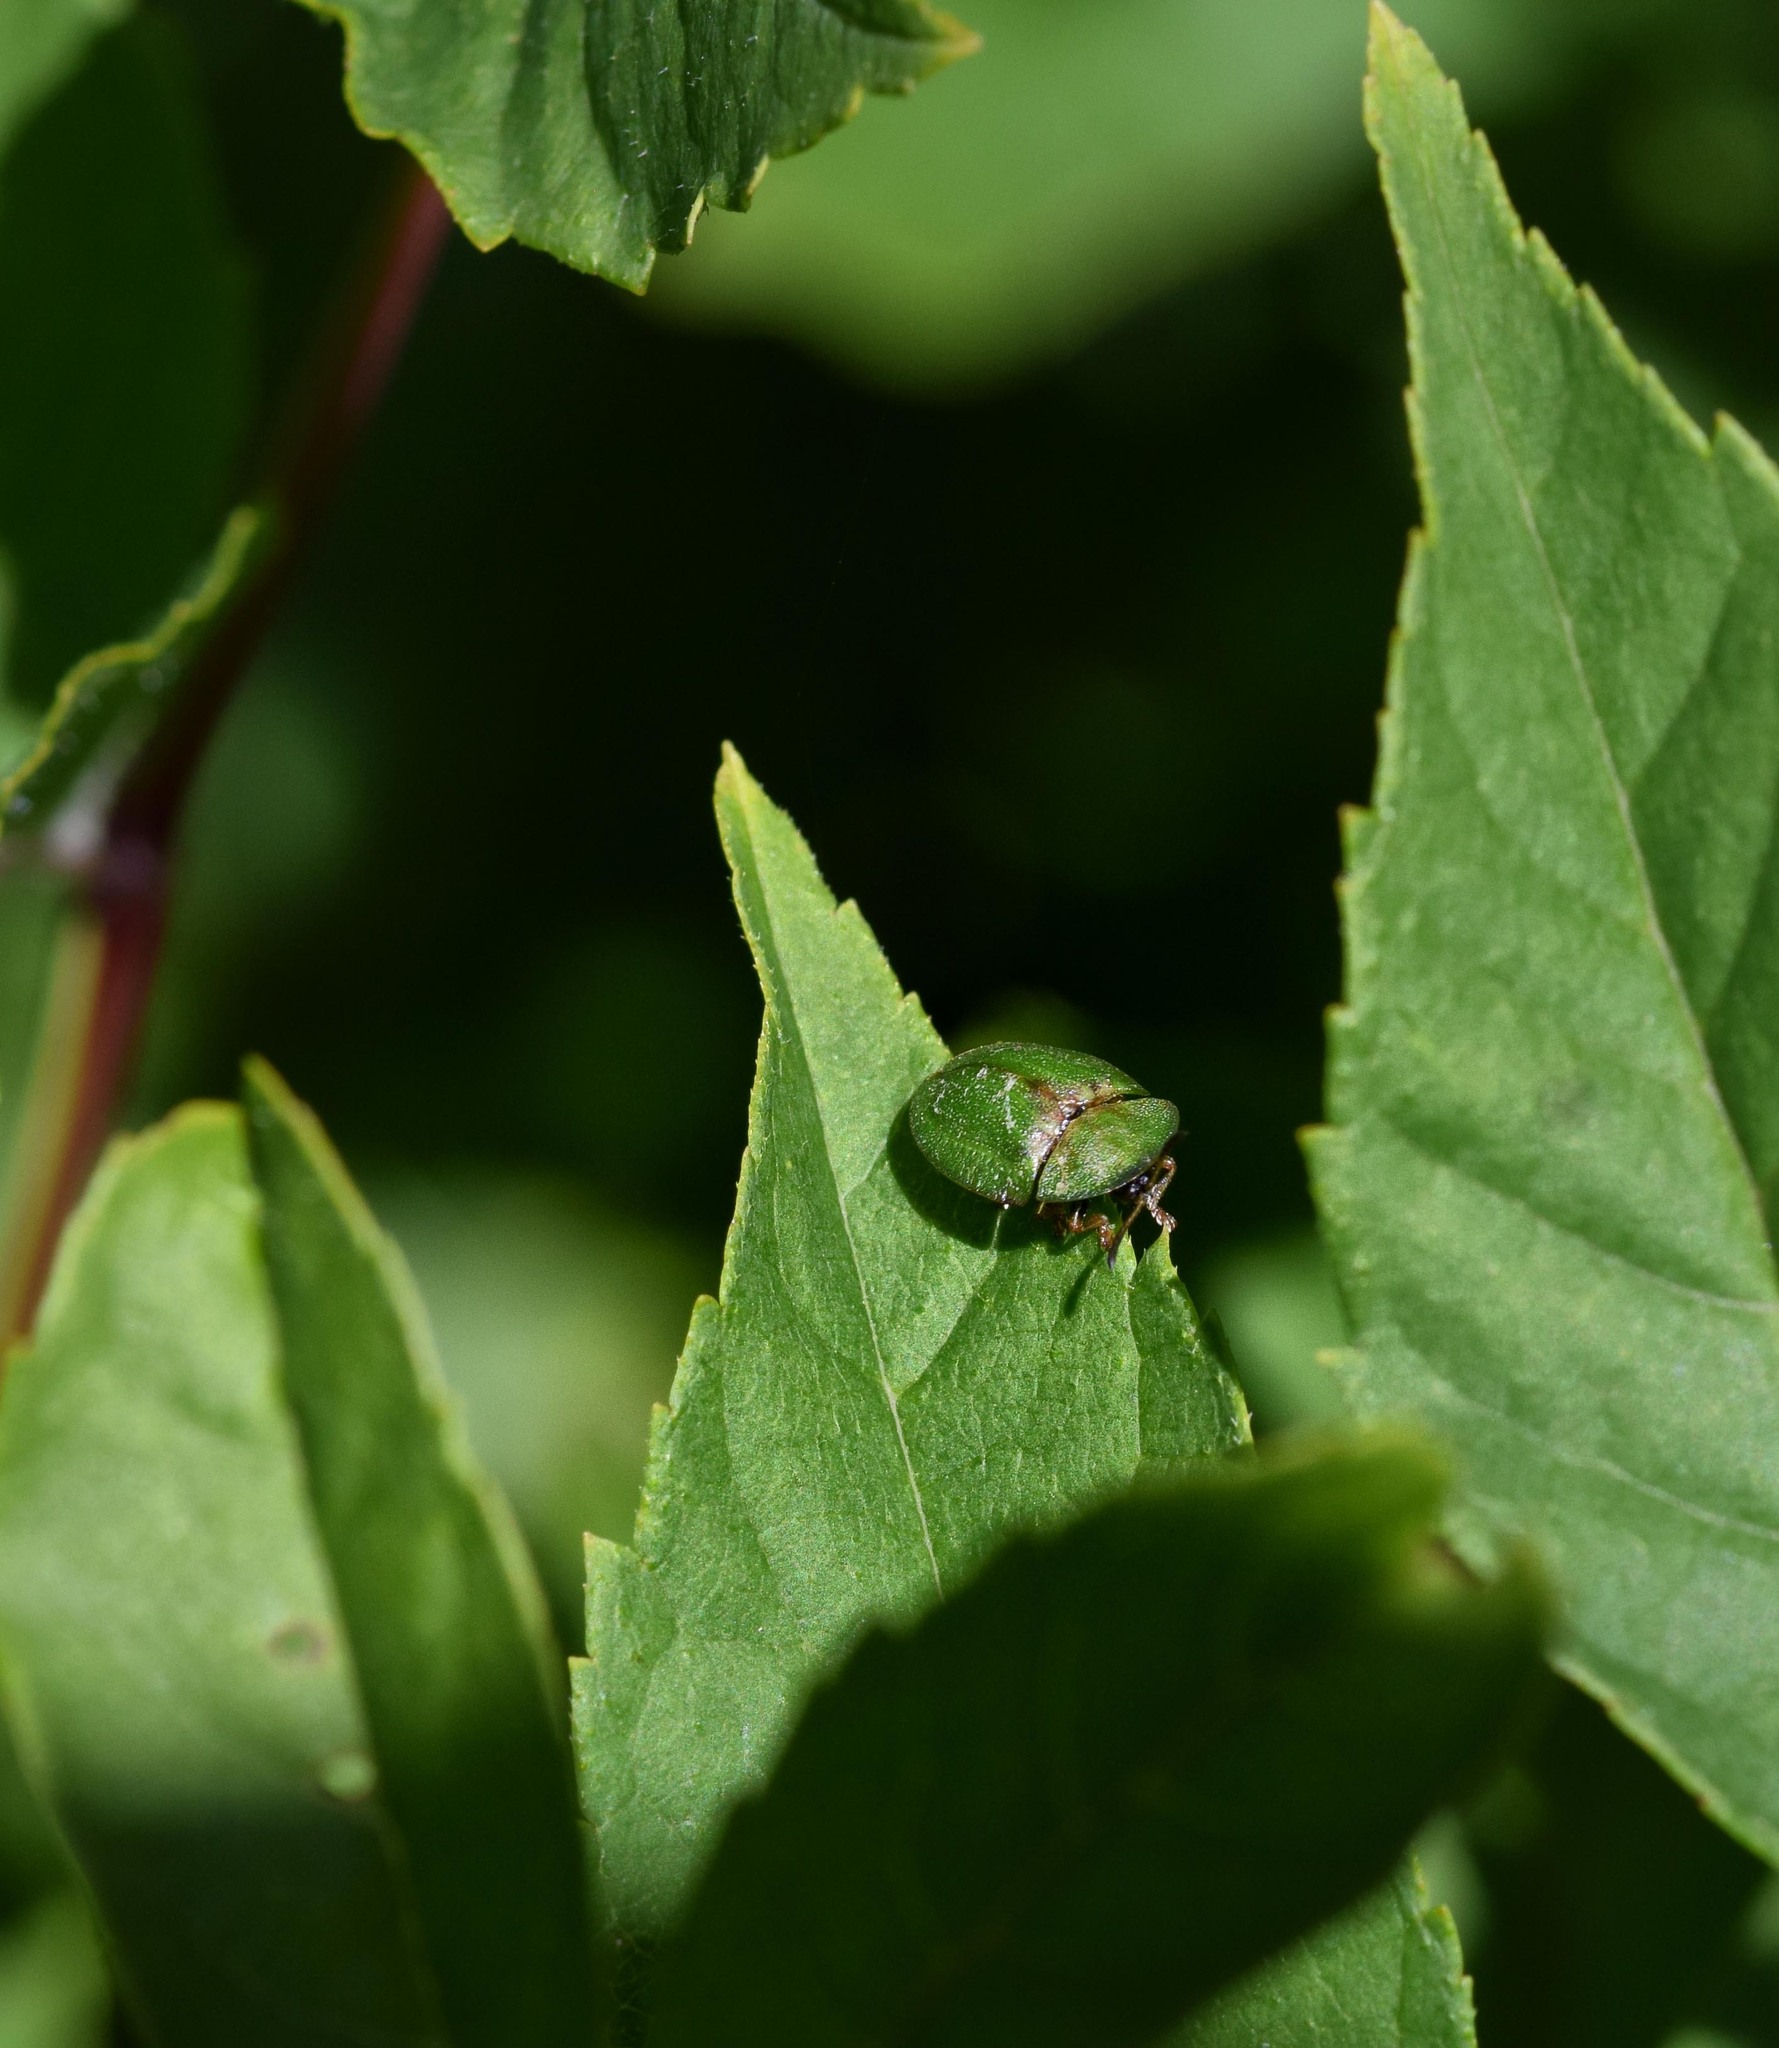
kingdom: Animalia
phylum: Arthropoda
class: Insecta
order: Coleoptera
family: Chrysomelidae
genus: Cassida
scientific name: Cassida rubiginosa
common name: Thistle tortoise beetle
